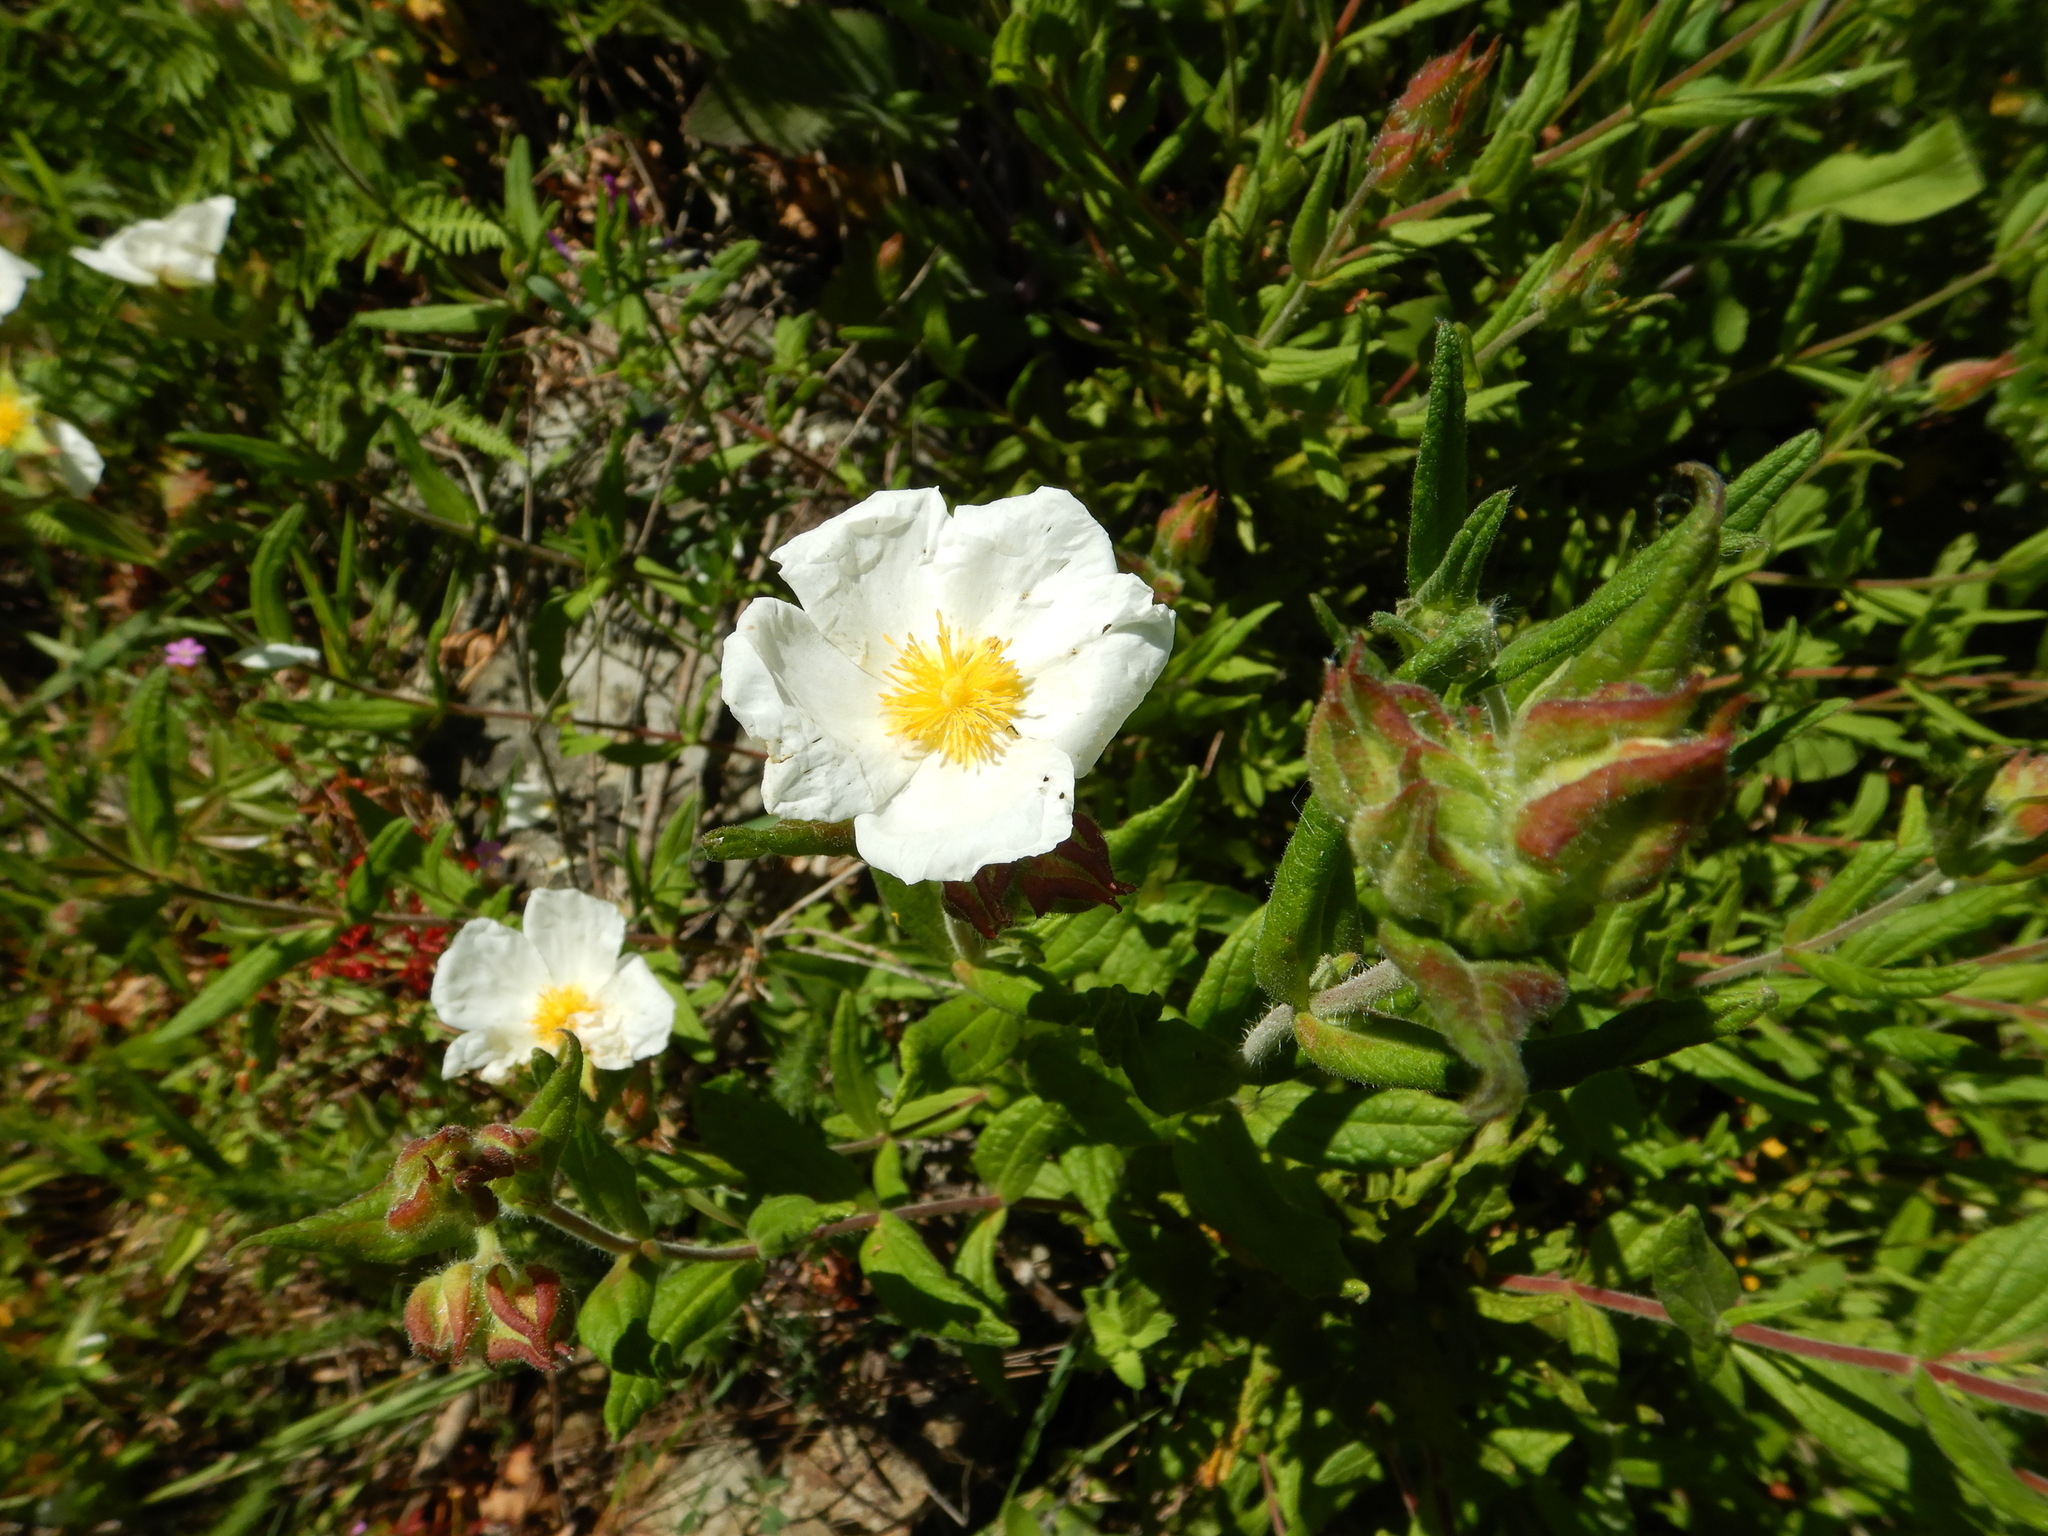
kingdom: Plantae
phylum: Tracheophyta
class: Magnoliopsida
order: Malvales
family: Cistaceae
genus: Cistus
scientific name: Cistus inflatus
